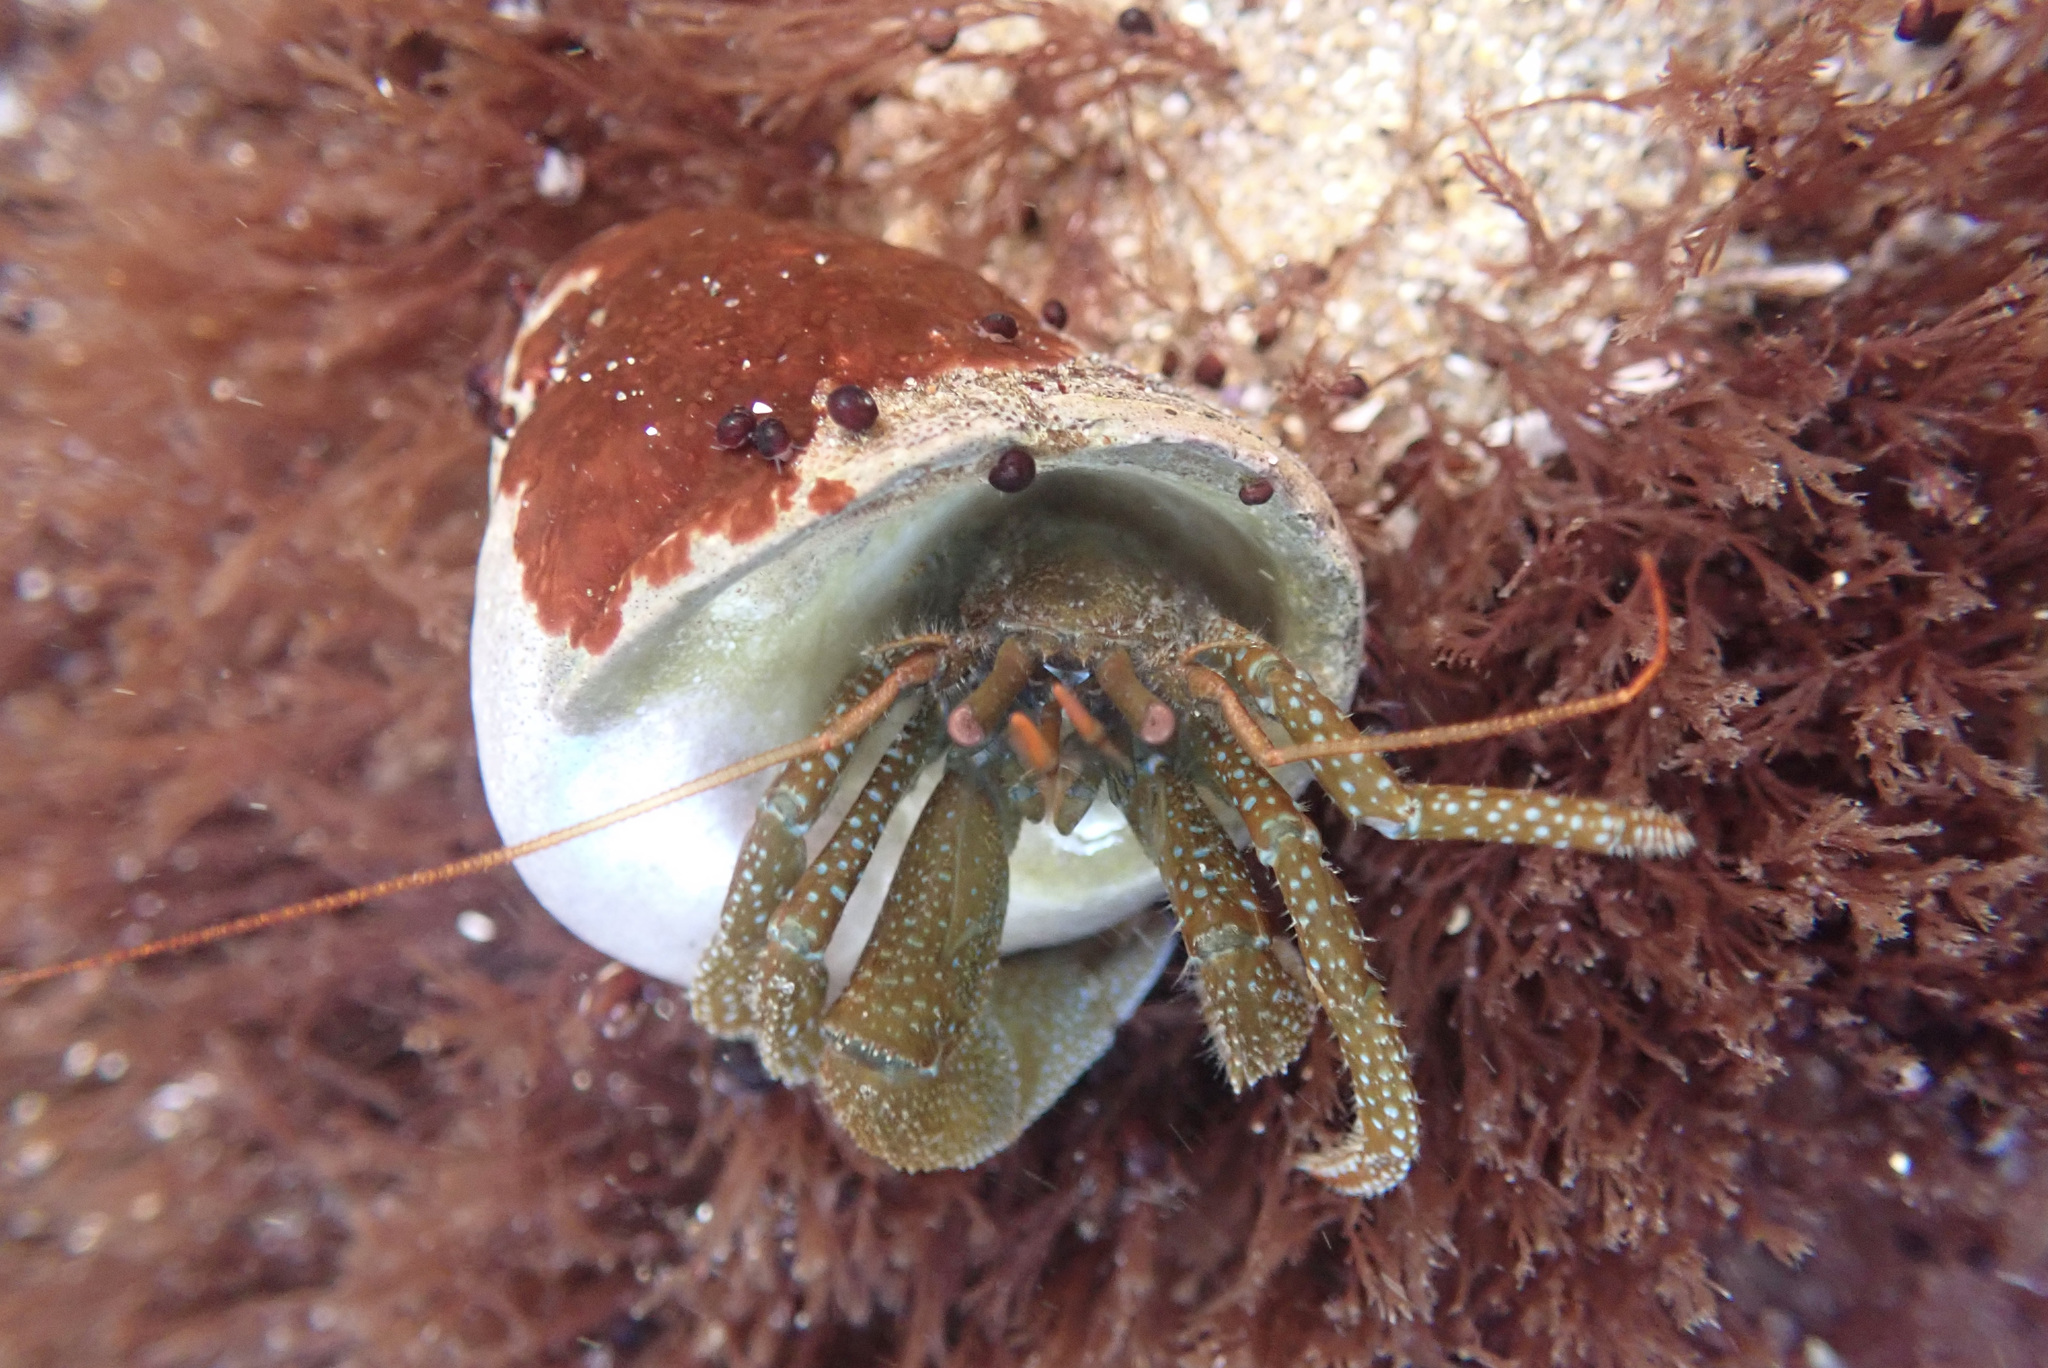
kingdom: Animalia
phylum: Arthropoda
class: Malacostraca
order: Decapoda
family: Paguridae
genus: Pagurus
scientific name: Pagurus granosimanus
